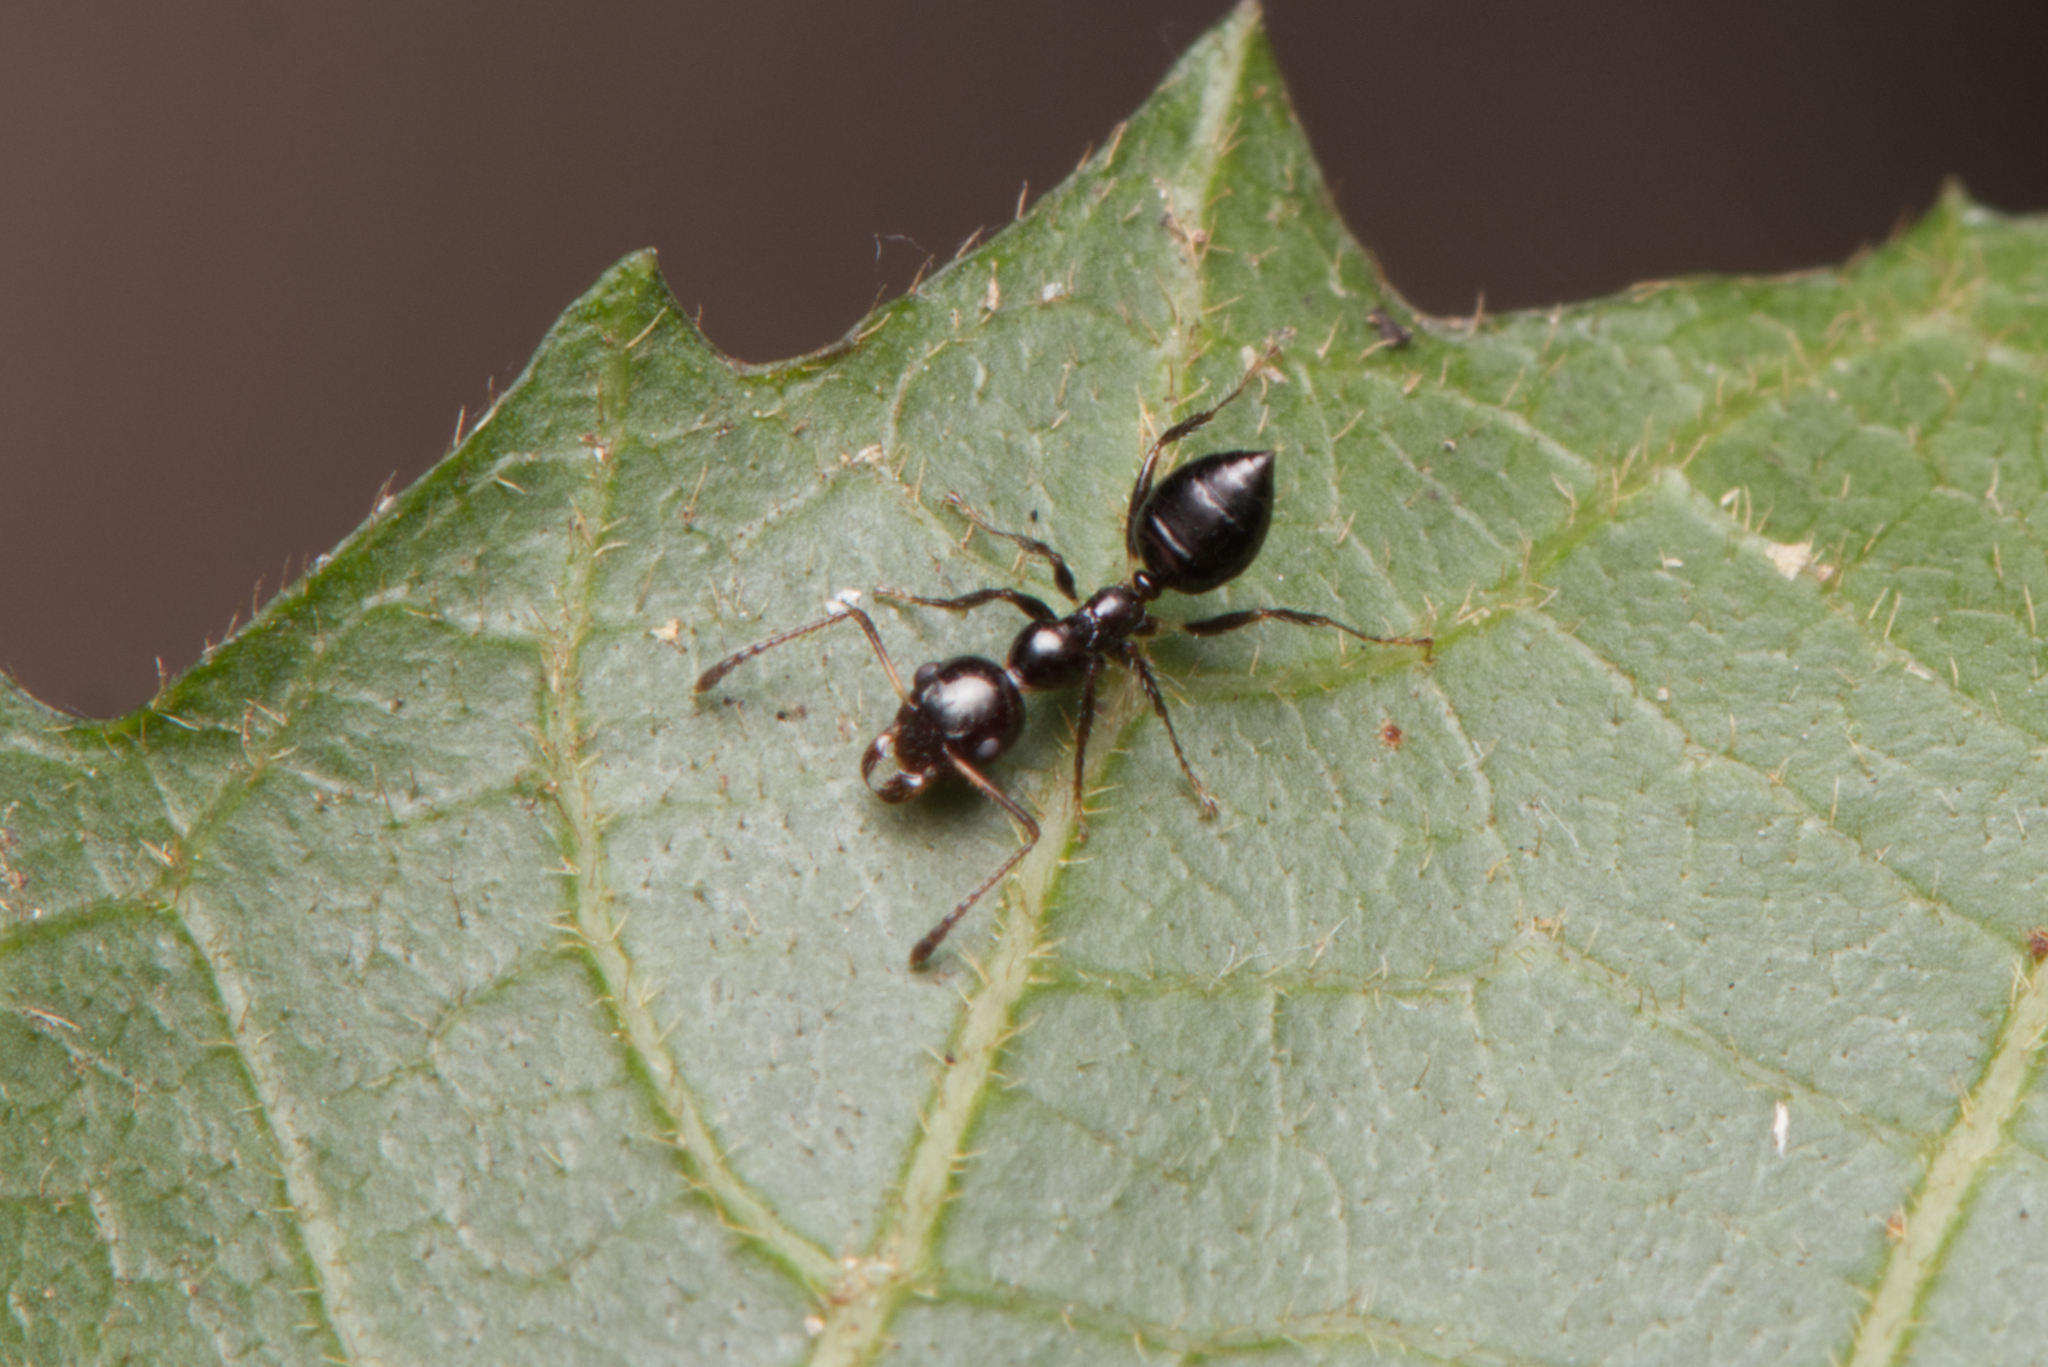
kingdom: Animalia
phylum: Arthropoda
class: Insecta
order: Hymenoptera
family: Formicidae
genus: Myrmecorhynchus
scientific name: Myrmecorhynchus emeryi
